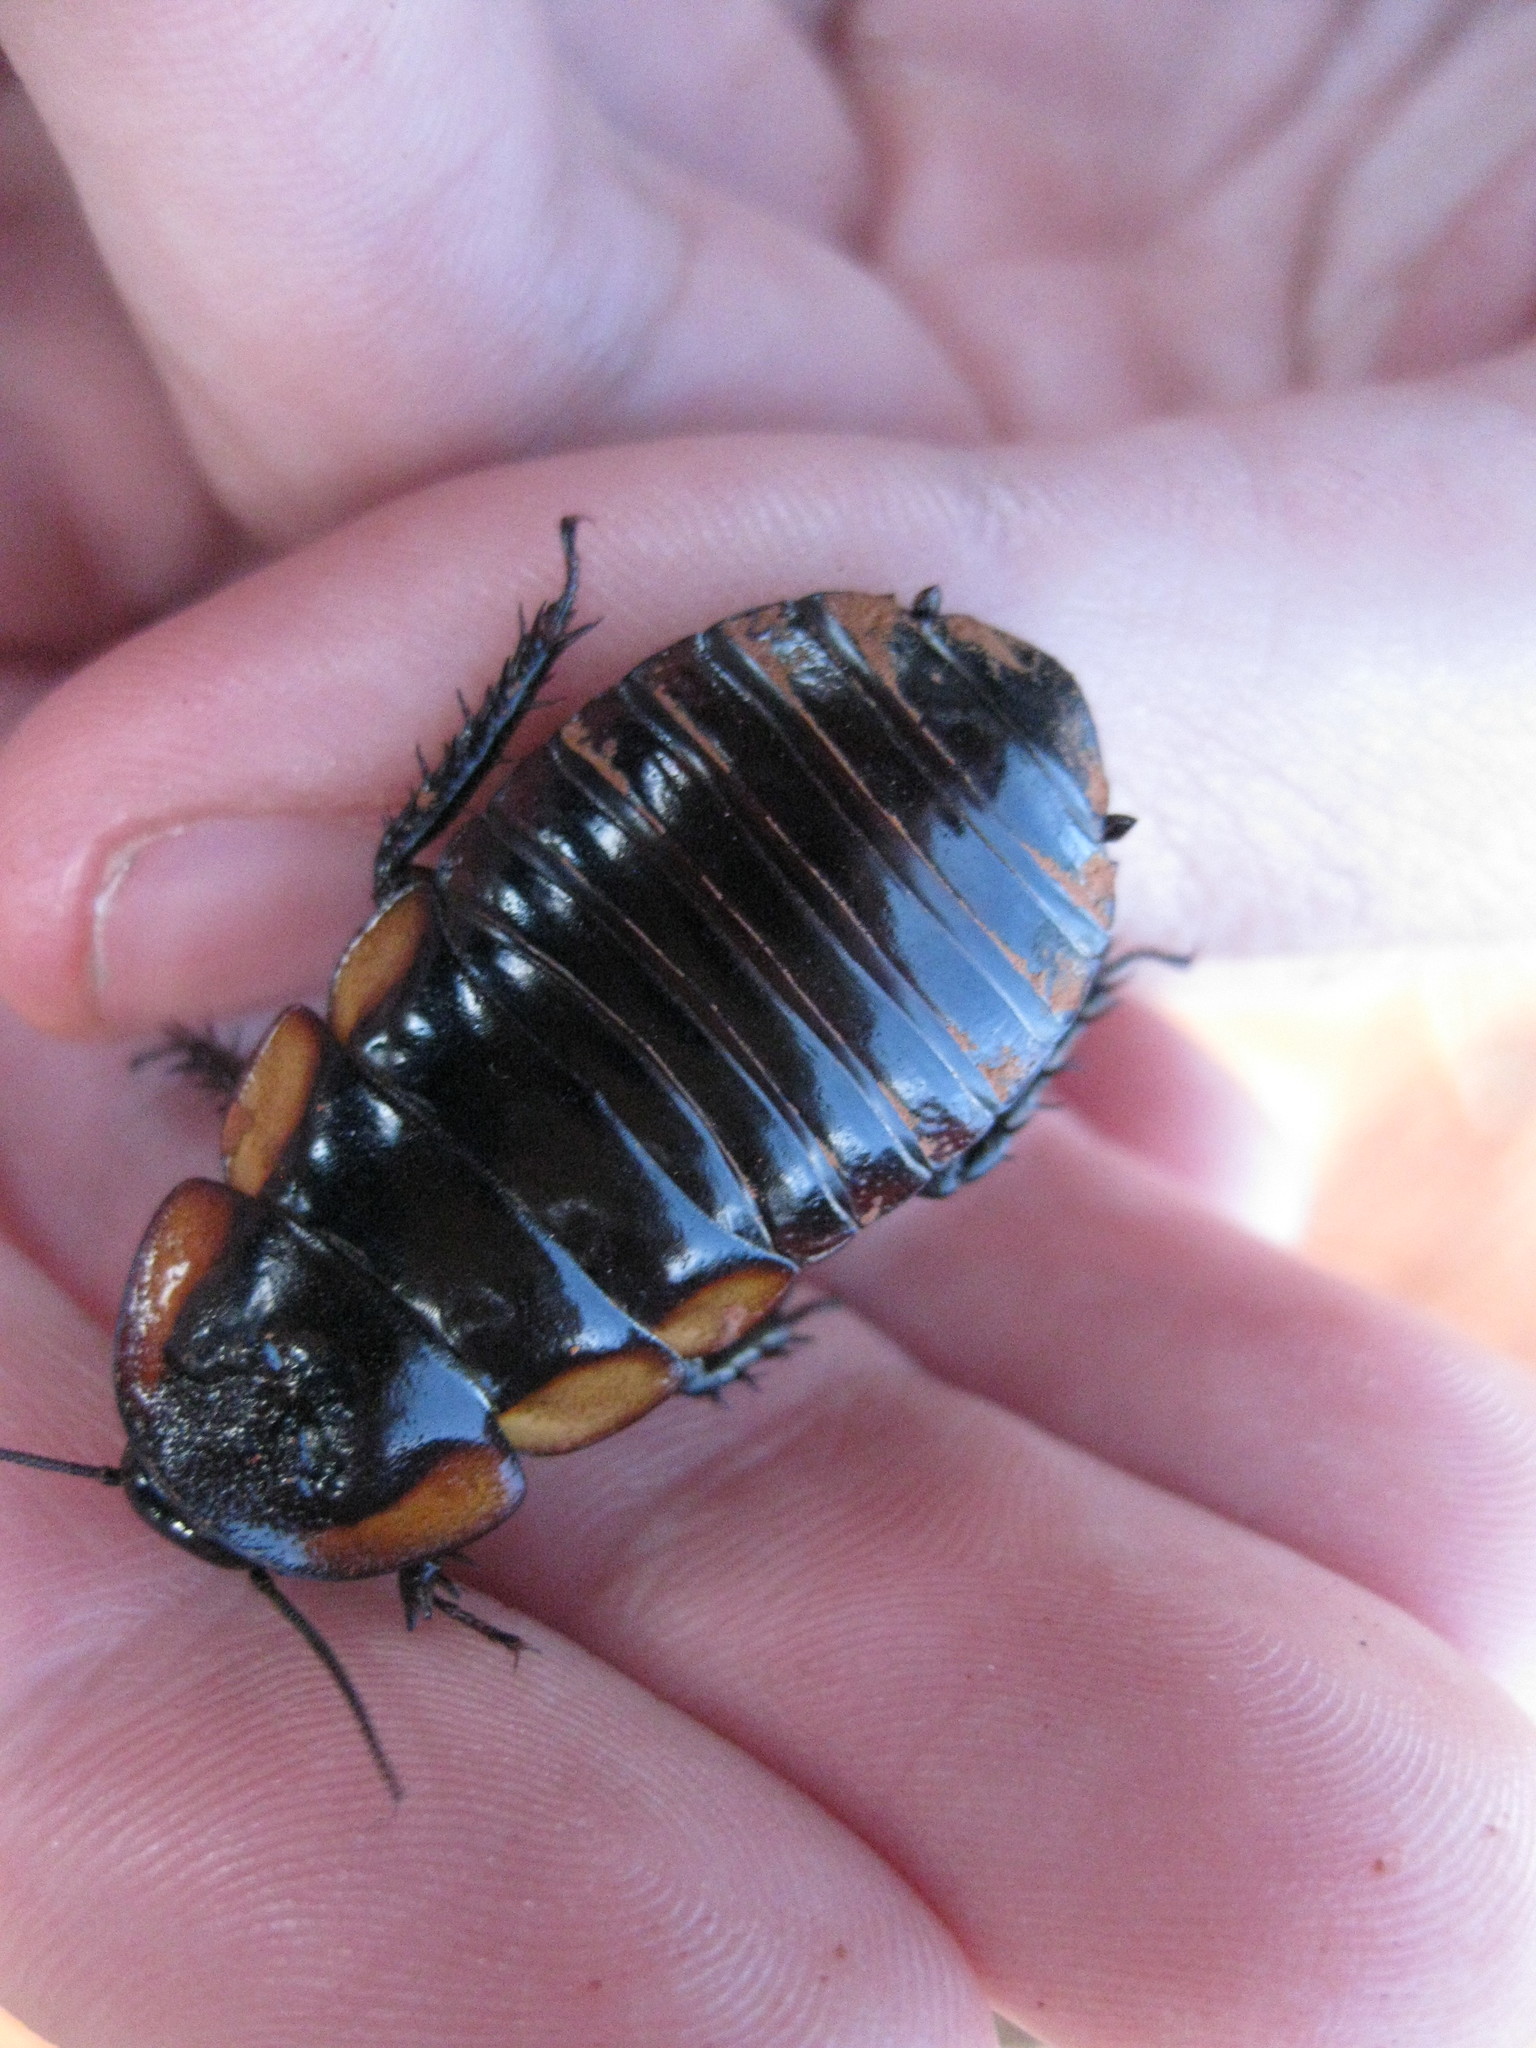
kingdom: Animalia
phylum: Arthropoda
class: Insecta
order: Blattodea
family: Blaberidae
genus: Macropanesthia
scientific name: Macropanesthia kraussiana
